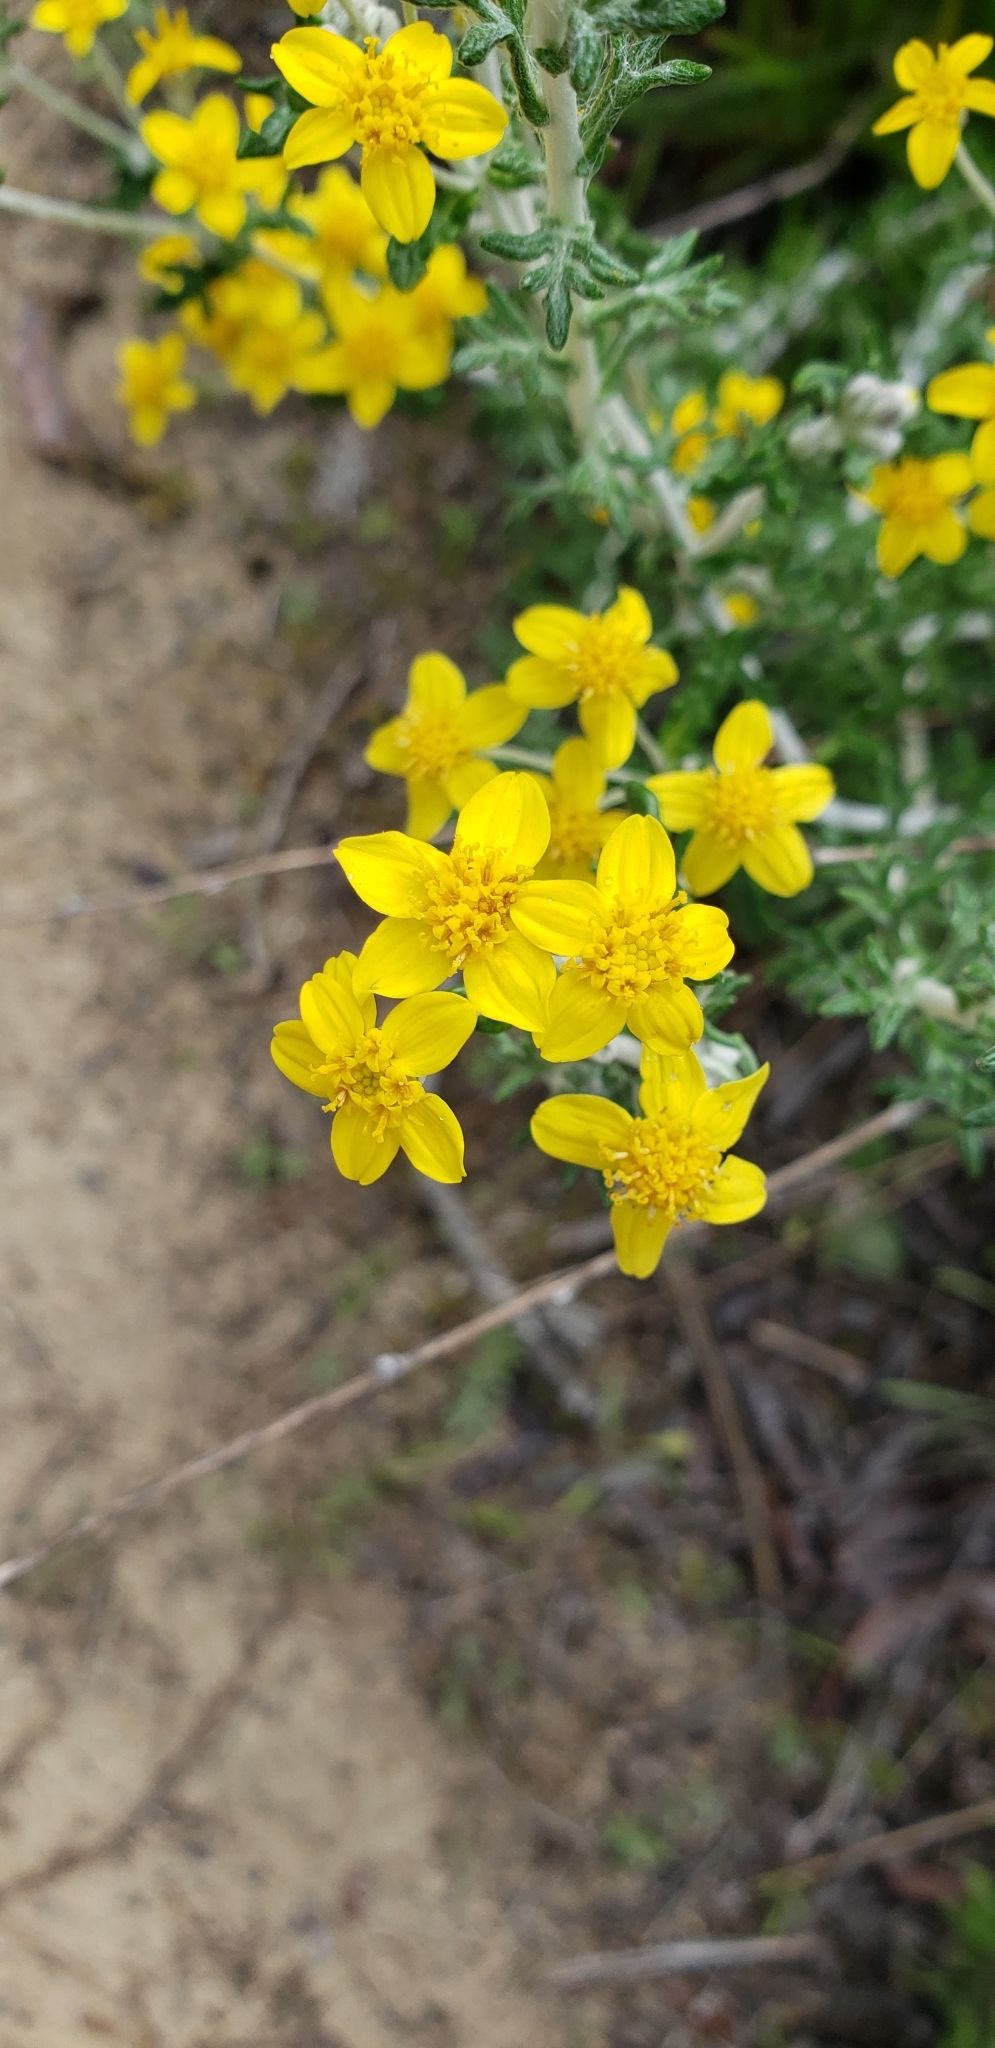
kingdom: Plantae
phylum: Tracheophyta
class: Magnoliopsida
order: Asterales
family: Asteraceae
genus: Eriophyllum
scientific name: Eriophyllum confertiflorum
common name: Golden-yarrow
